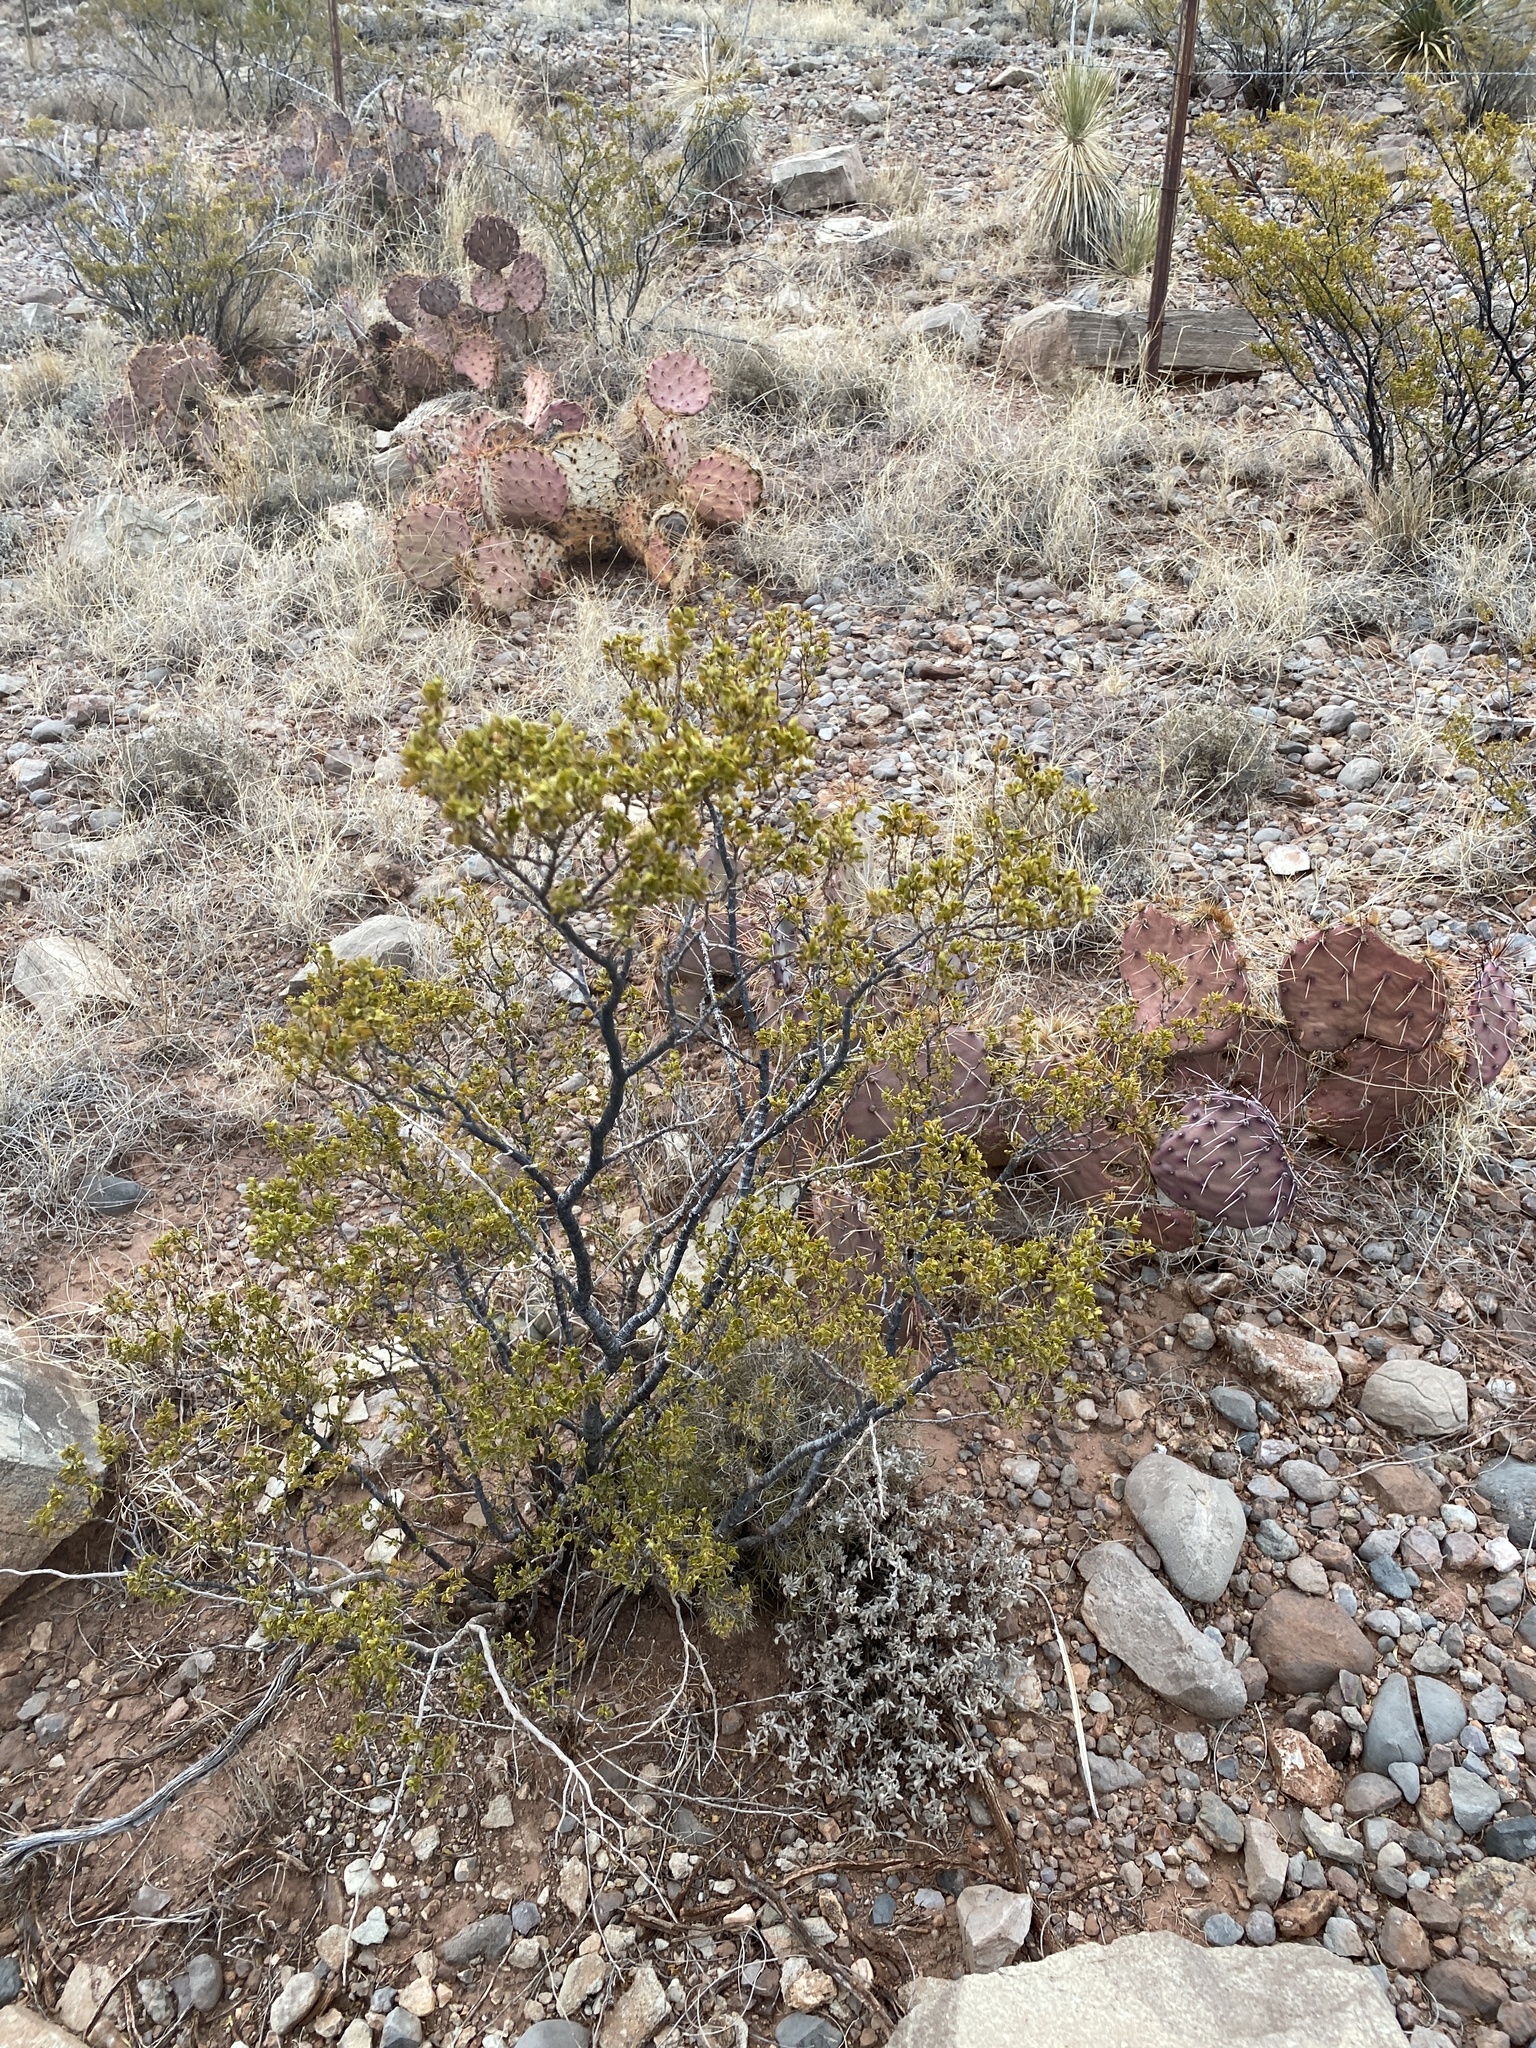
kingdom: Plantae
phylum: Tracheophyta
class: Magnoliopsida
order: Zygophyllales
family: Zygophyllaceae
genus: Larrea
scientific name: Larrea tridentata
